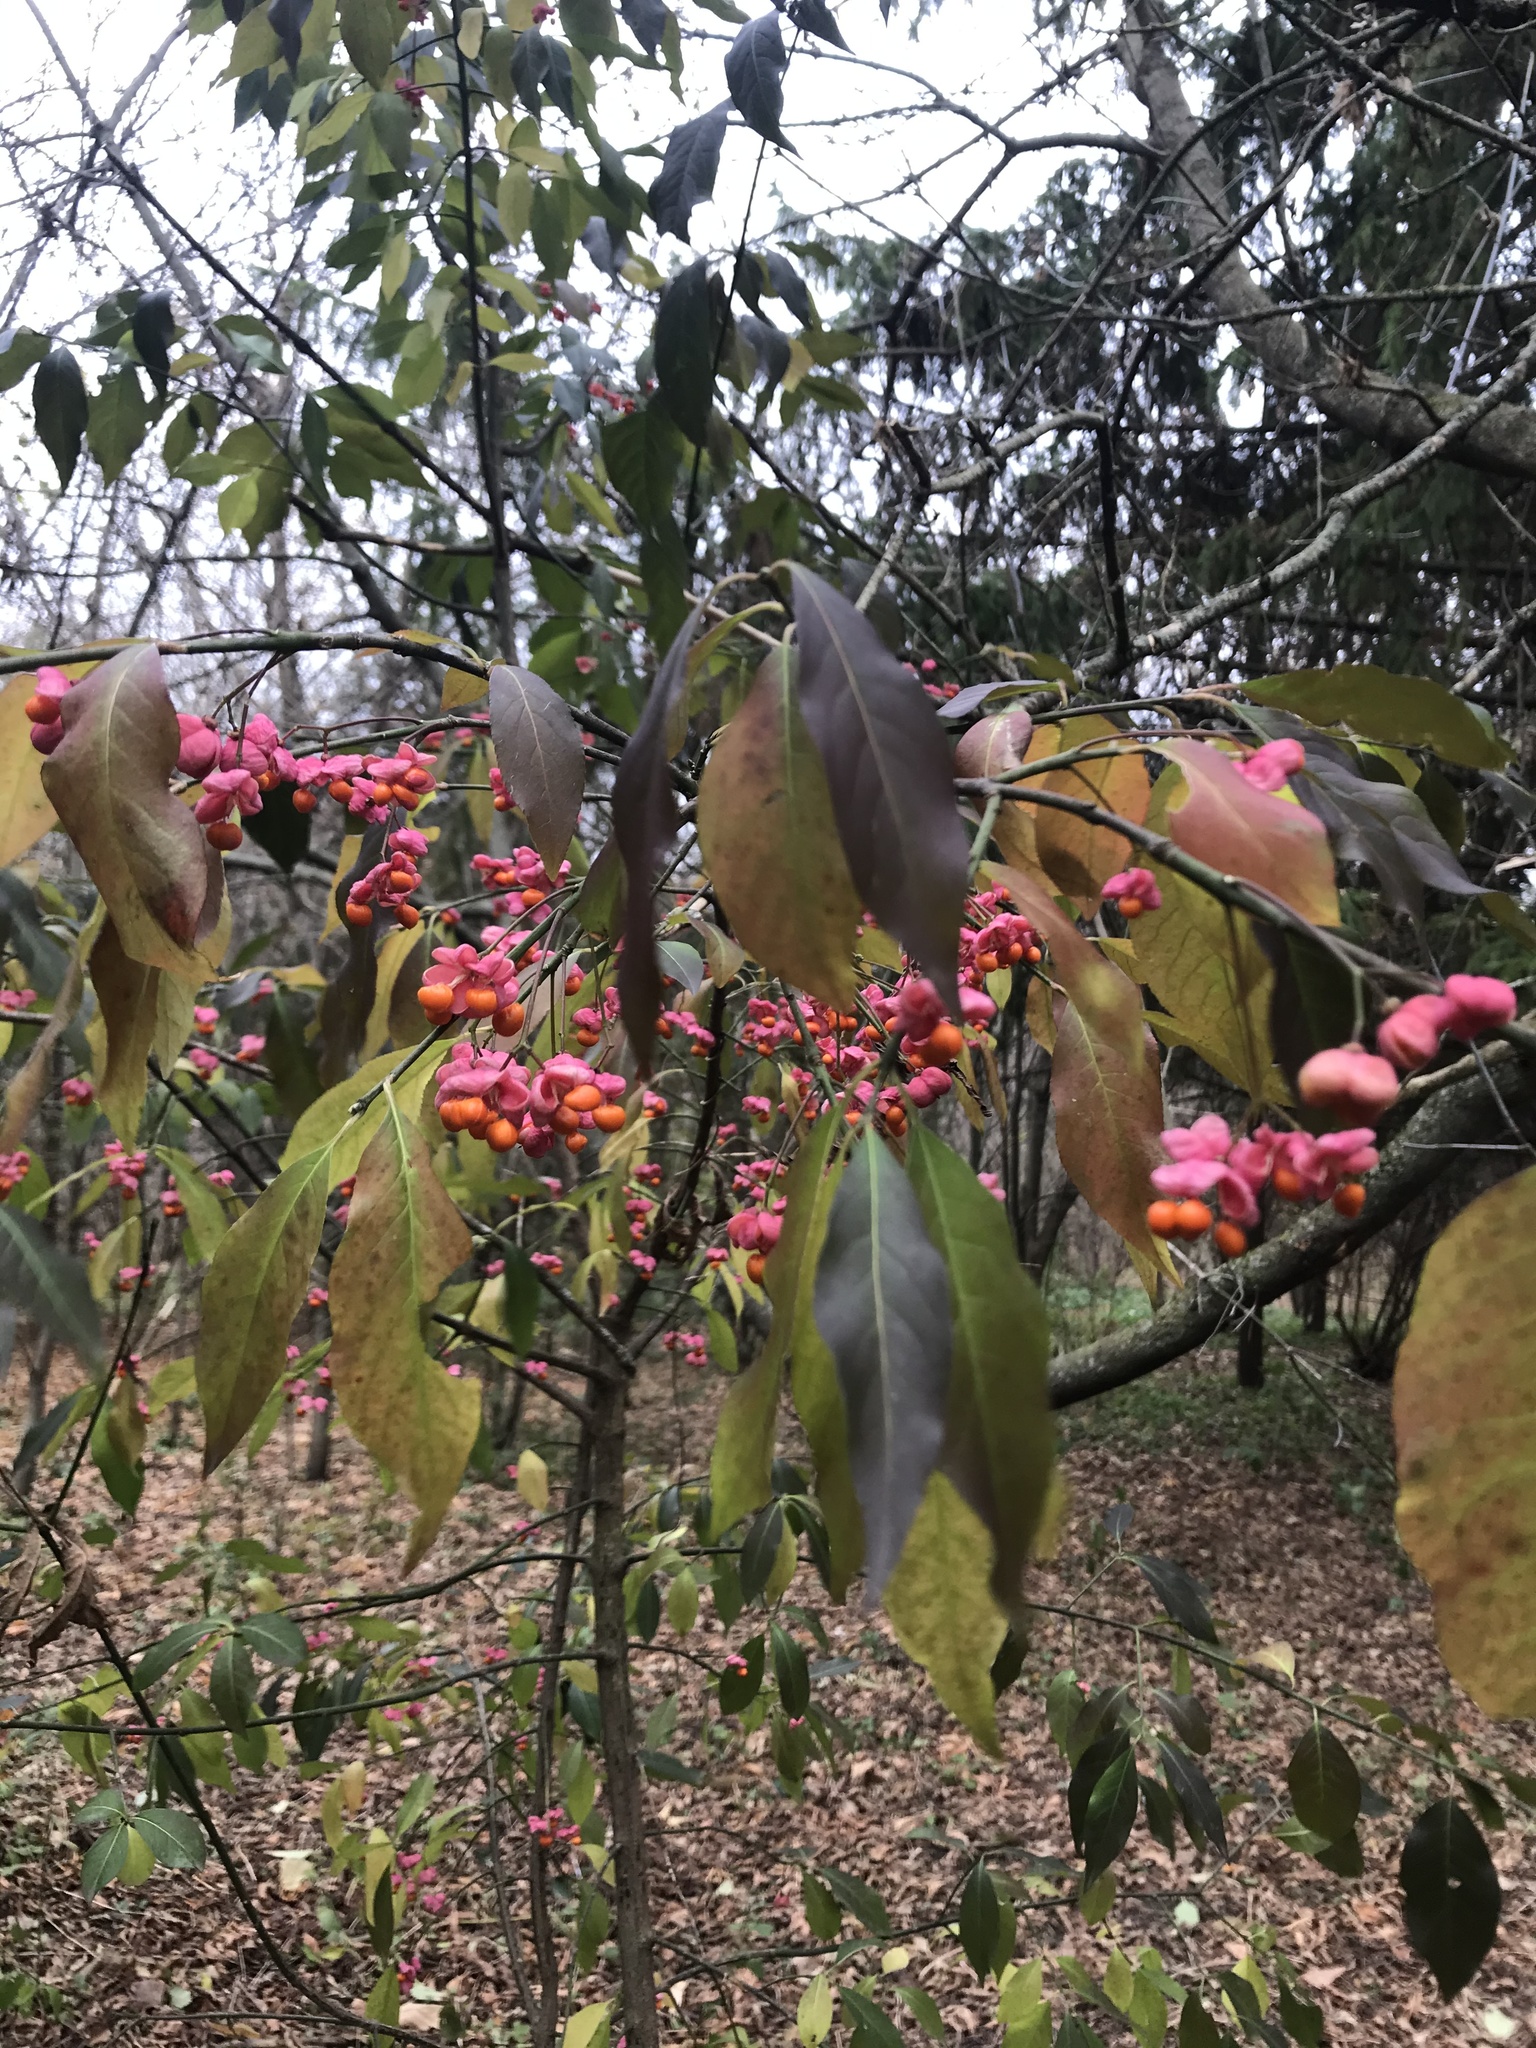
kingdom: Plantae
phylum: Tracheophyta
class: Magnoliopsida
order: Celastrales
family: Celastraceae
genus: Euonymus
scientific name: Euonymus europaeus
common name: Spindle
